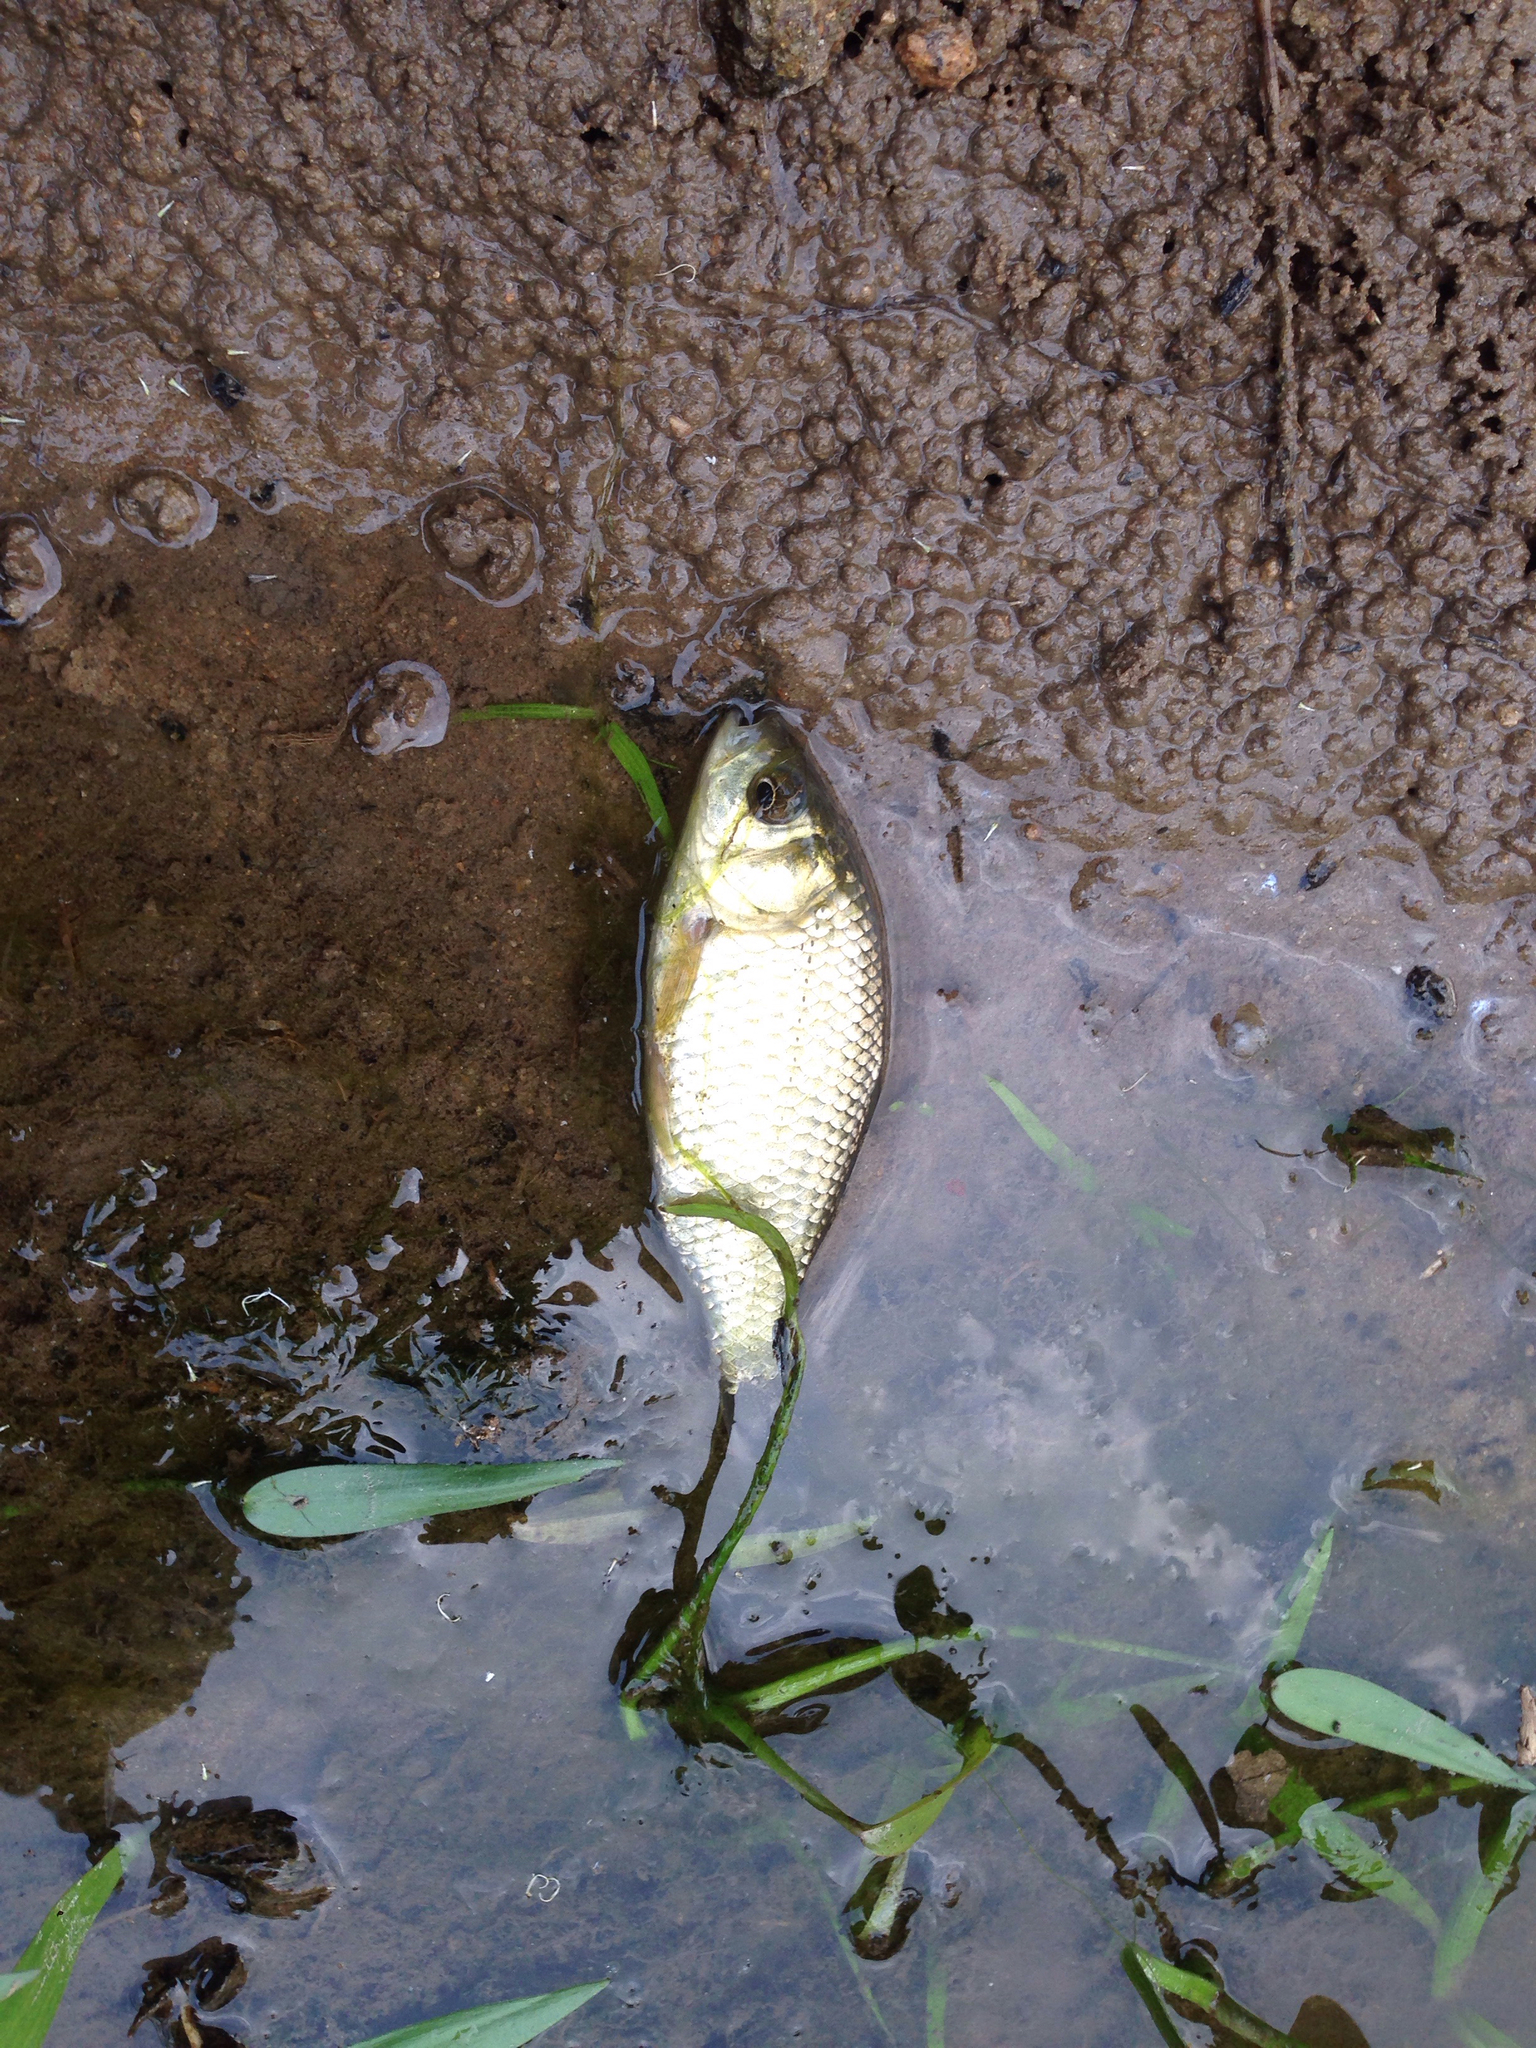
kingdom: Animalia
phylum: Chordata
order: Cypriniformes
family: Cyprinidae
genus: Carassius
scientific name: Carassius gibelio
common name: Prussian carp
